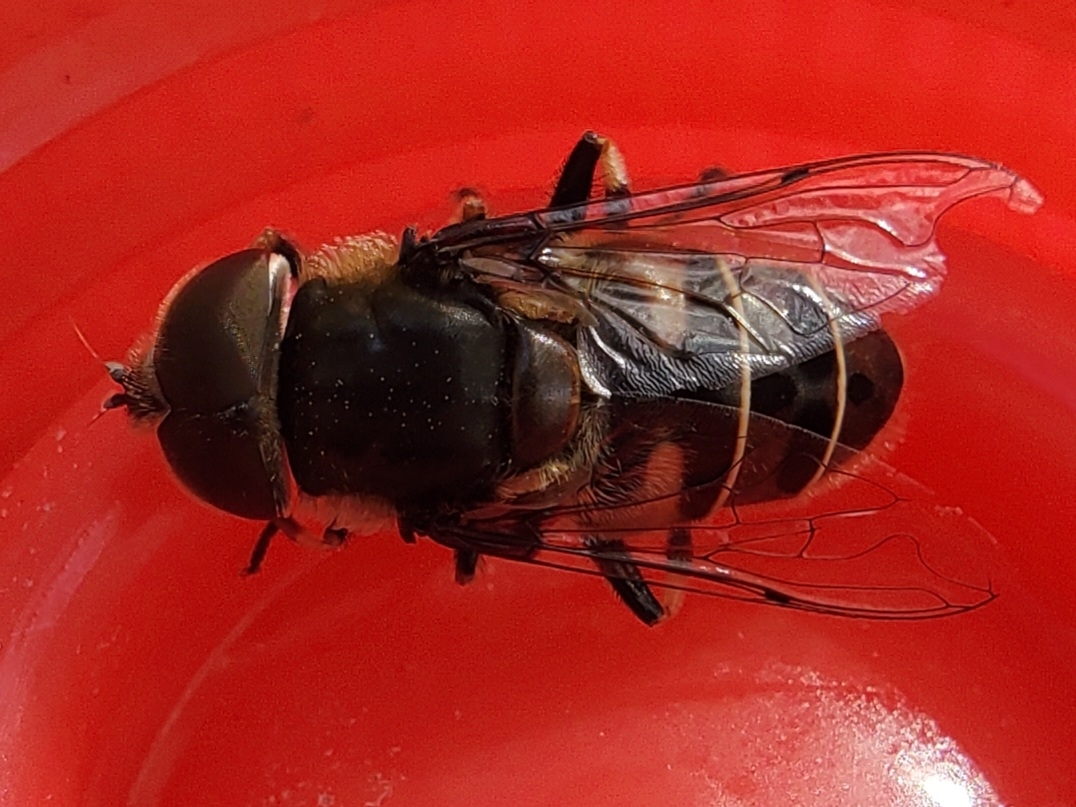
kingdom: Animalia
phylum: Arthropoda
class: Insecta
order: Diptera
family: Syrphidae
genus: Eristalis
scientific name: Eristalis dimidiata
